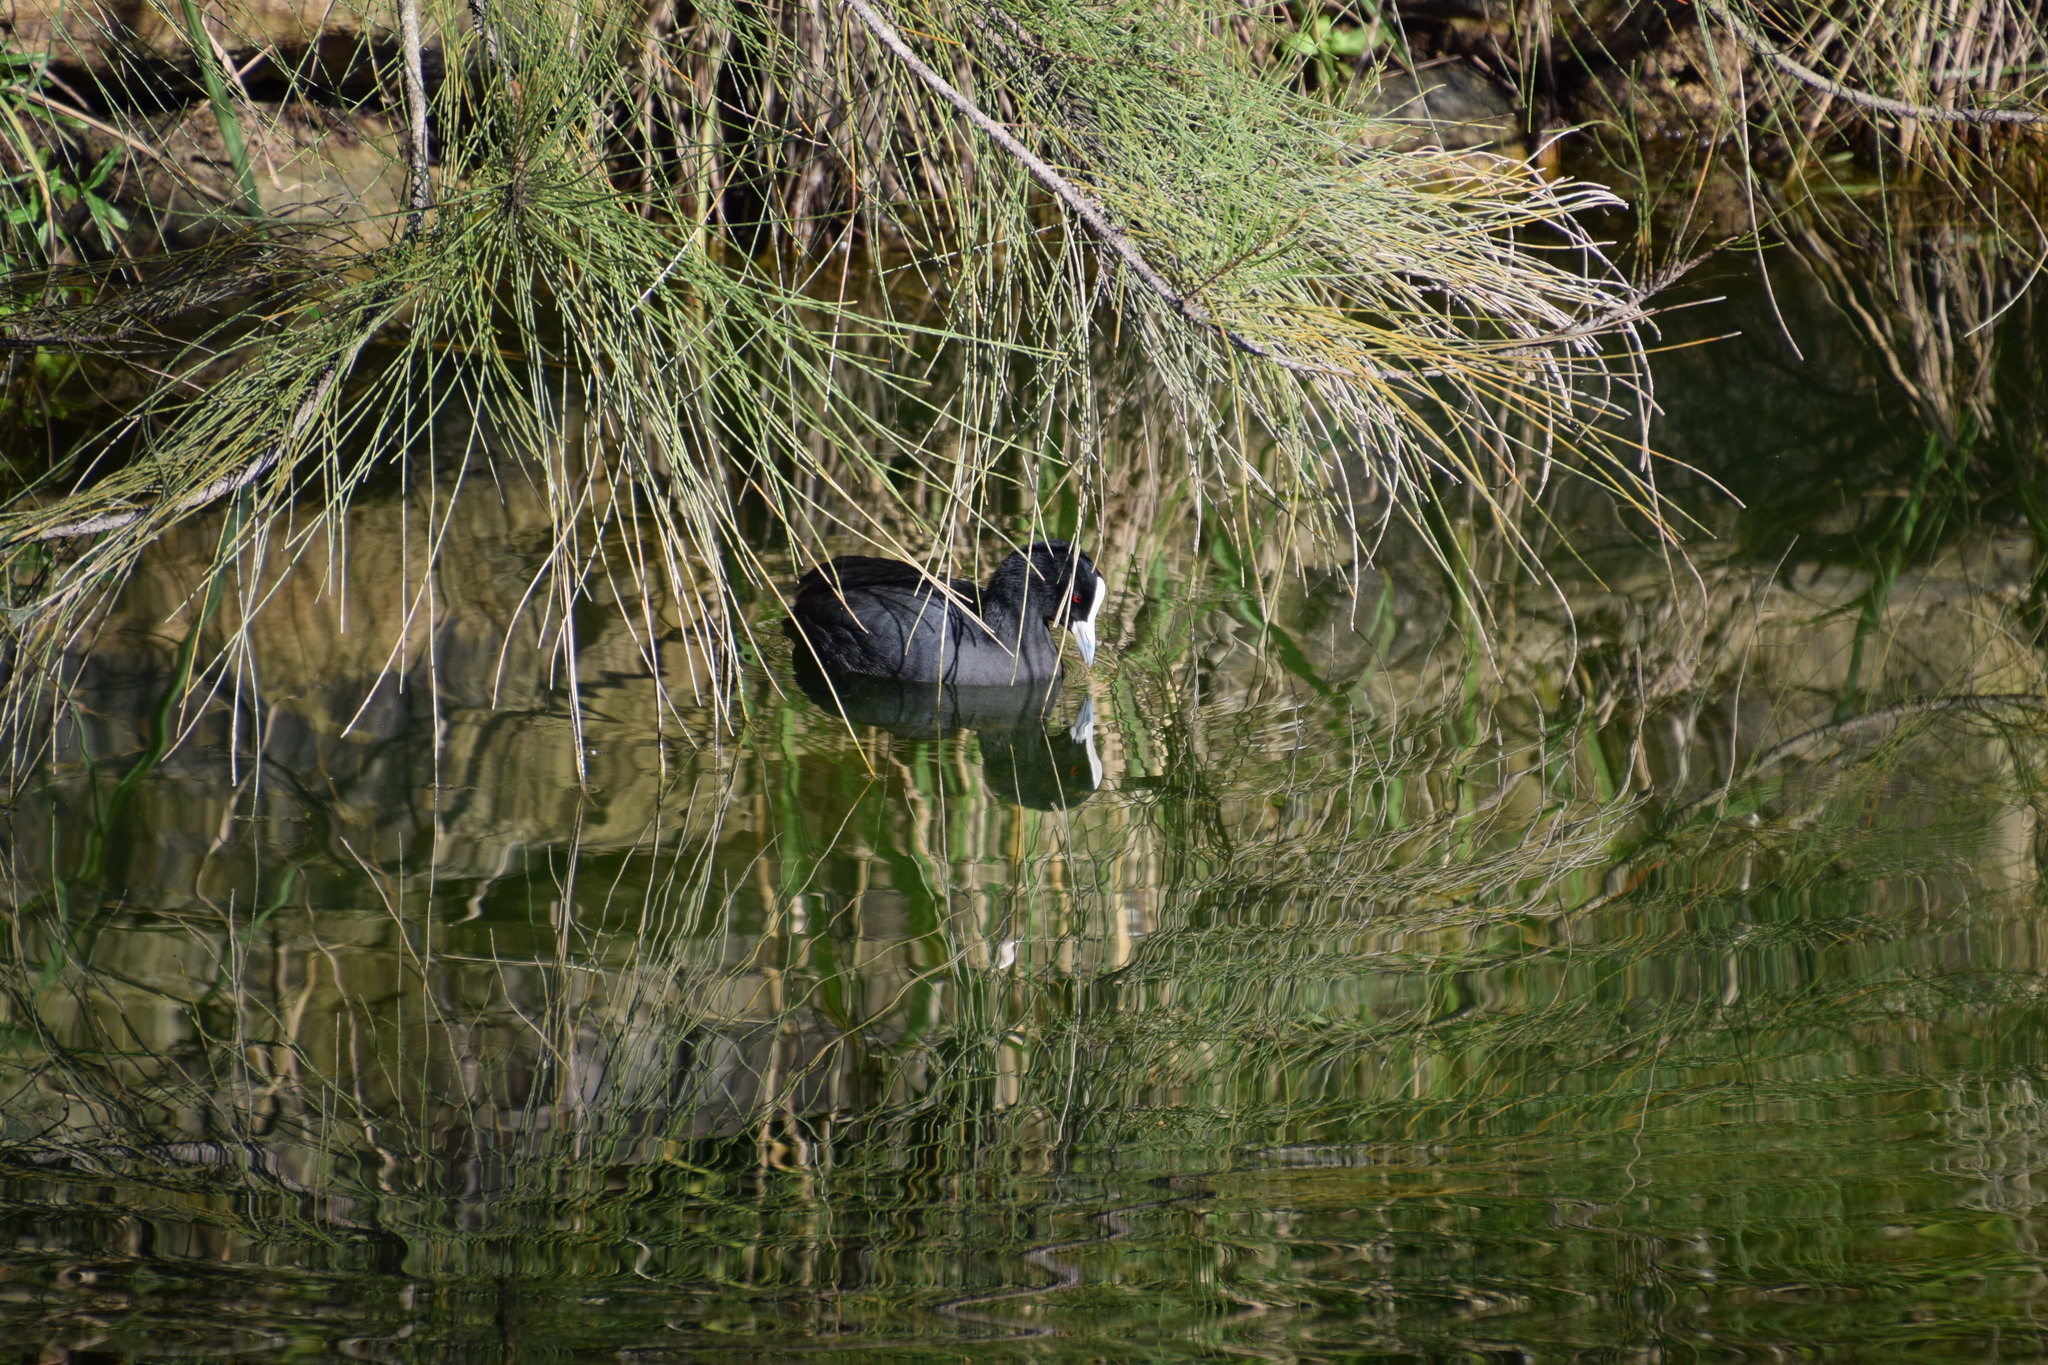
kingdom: Animalia
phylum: Chordata
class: Aves
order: Gruiformes
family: Rallidae
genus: Fulica
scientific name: Fulica atra
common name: Eurasian coot
